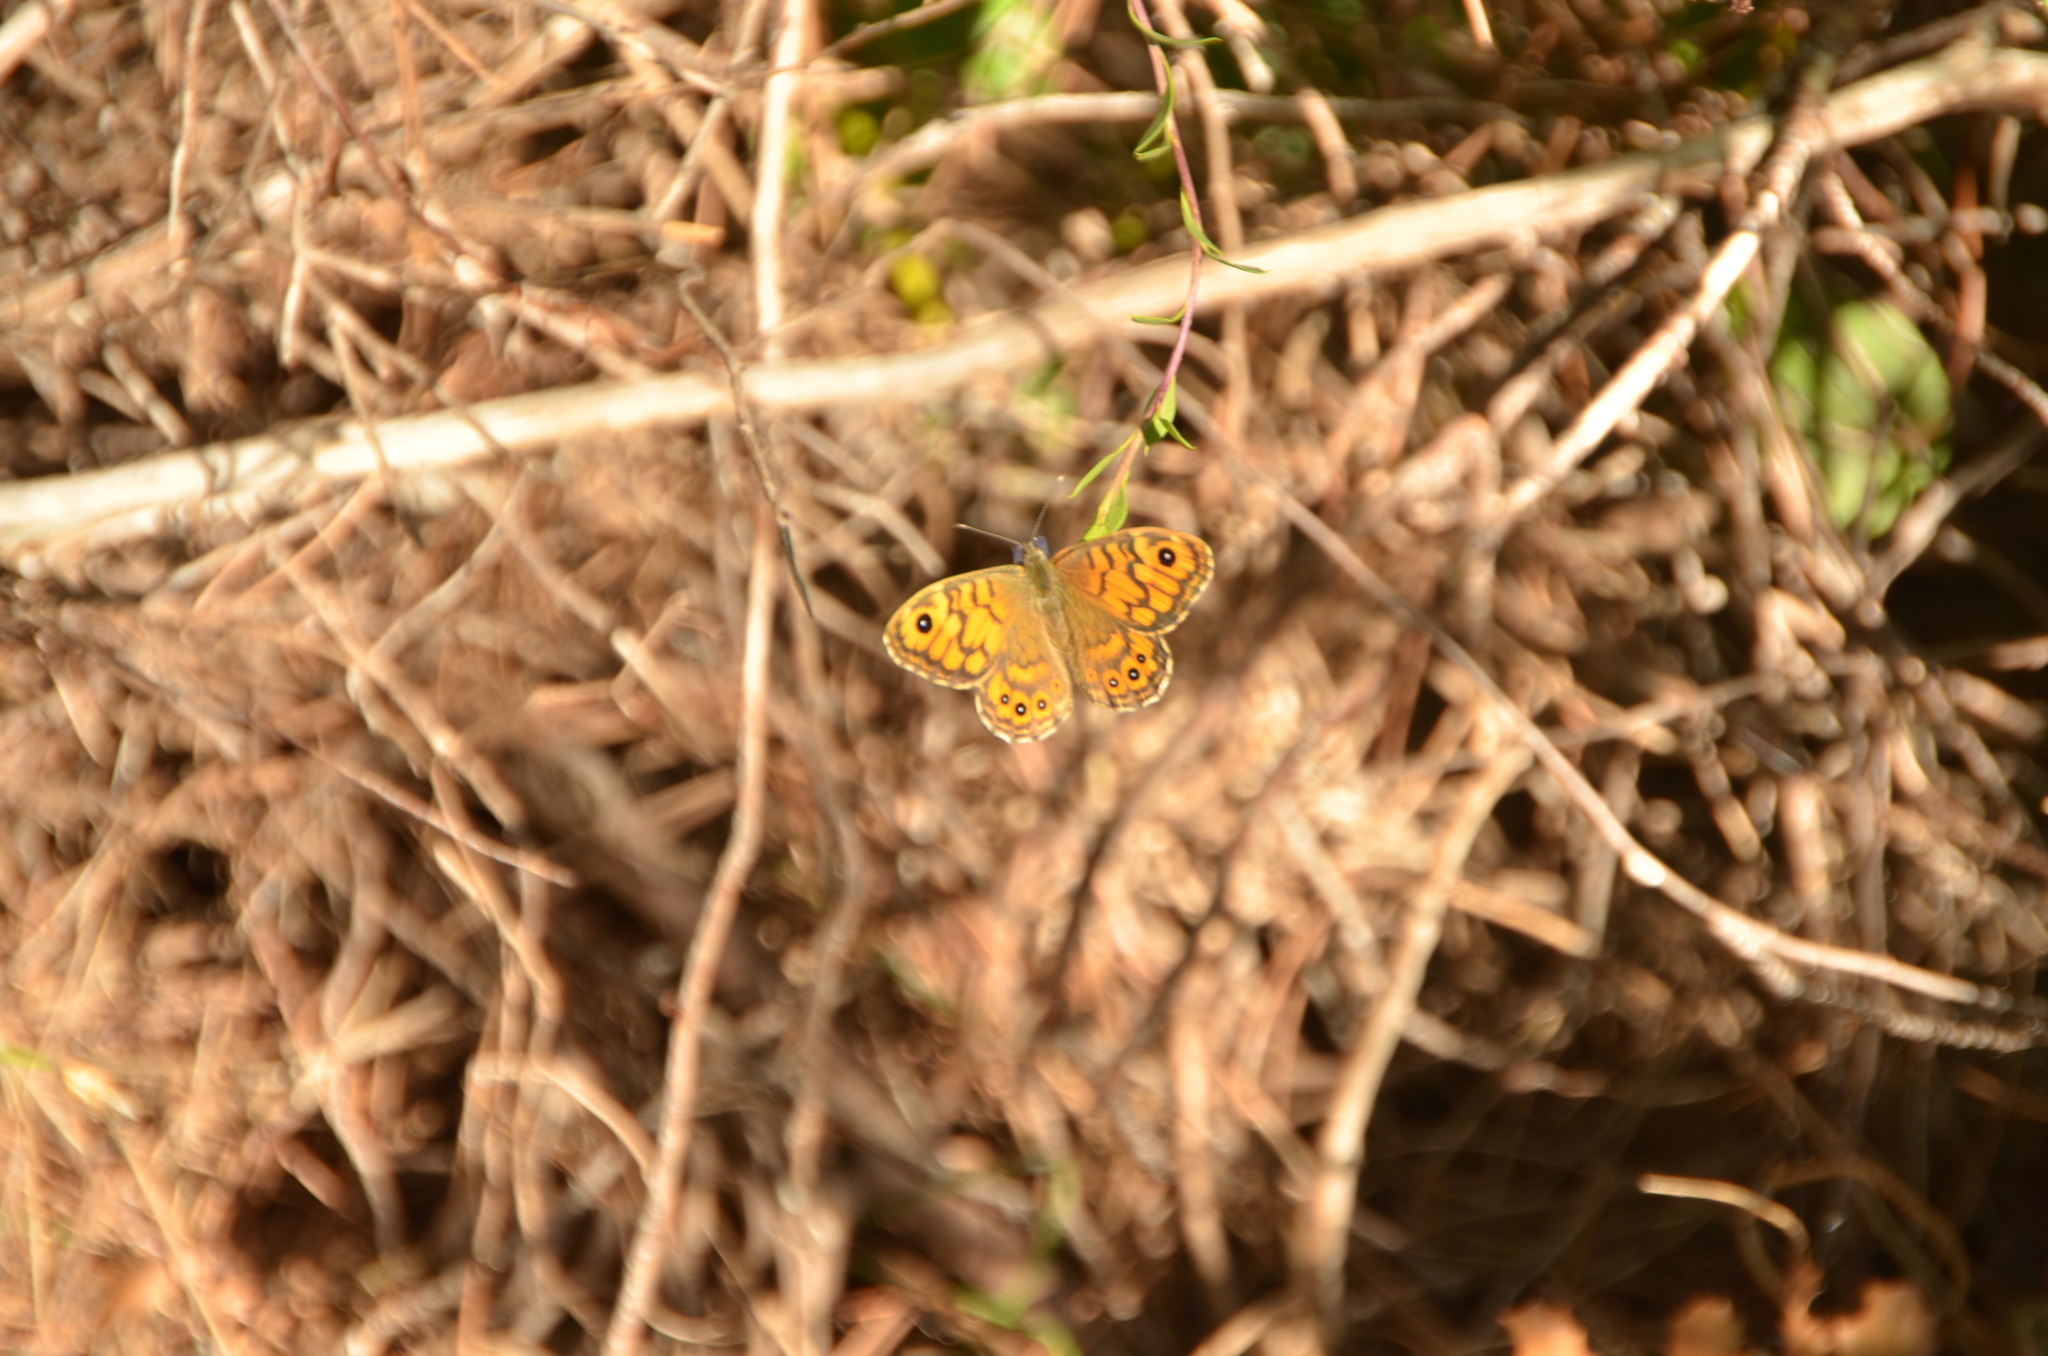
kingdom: Animalia
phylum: Arthropoda
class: Insecta
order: Lepidoptera
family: Nymphalidae
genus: Pararge
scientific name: Pararge Lasiommata megera
